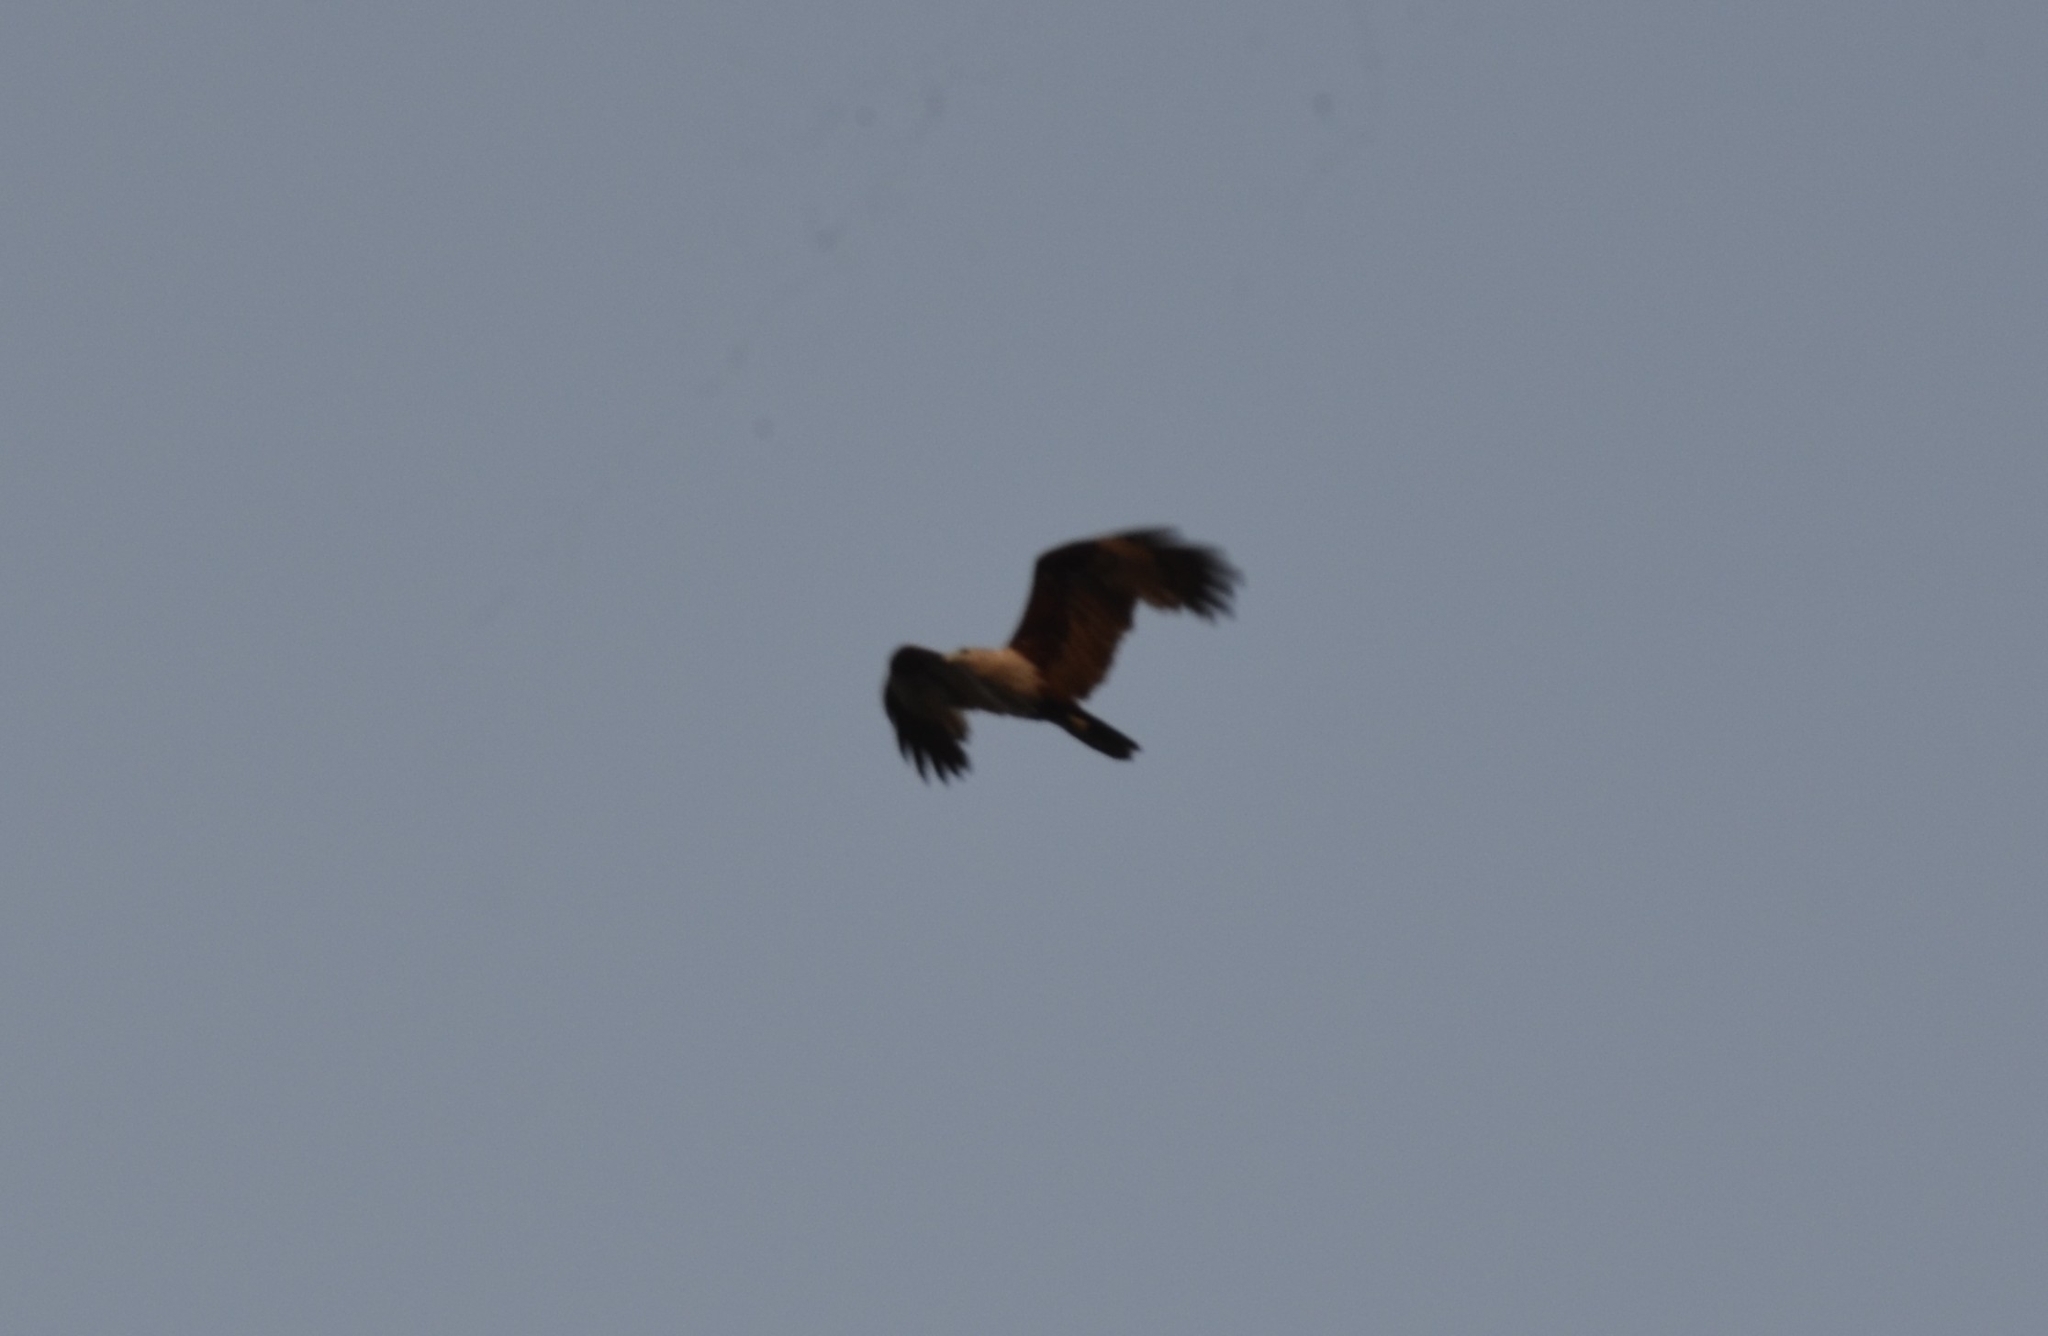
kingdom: Animalia
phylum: Chordata
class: Aves
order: Accipitriformes
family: Accipitridae
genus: Haliastur
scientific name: Haliastur indus
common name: Brahminy kite
